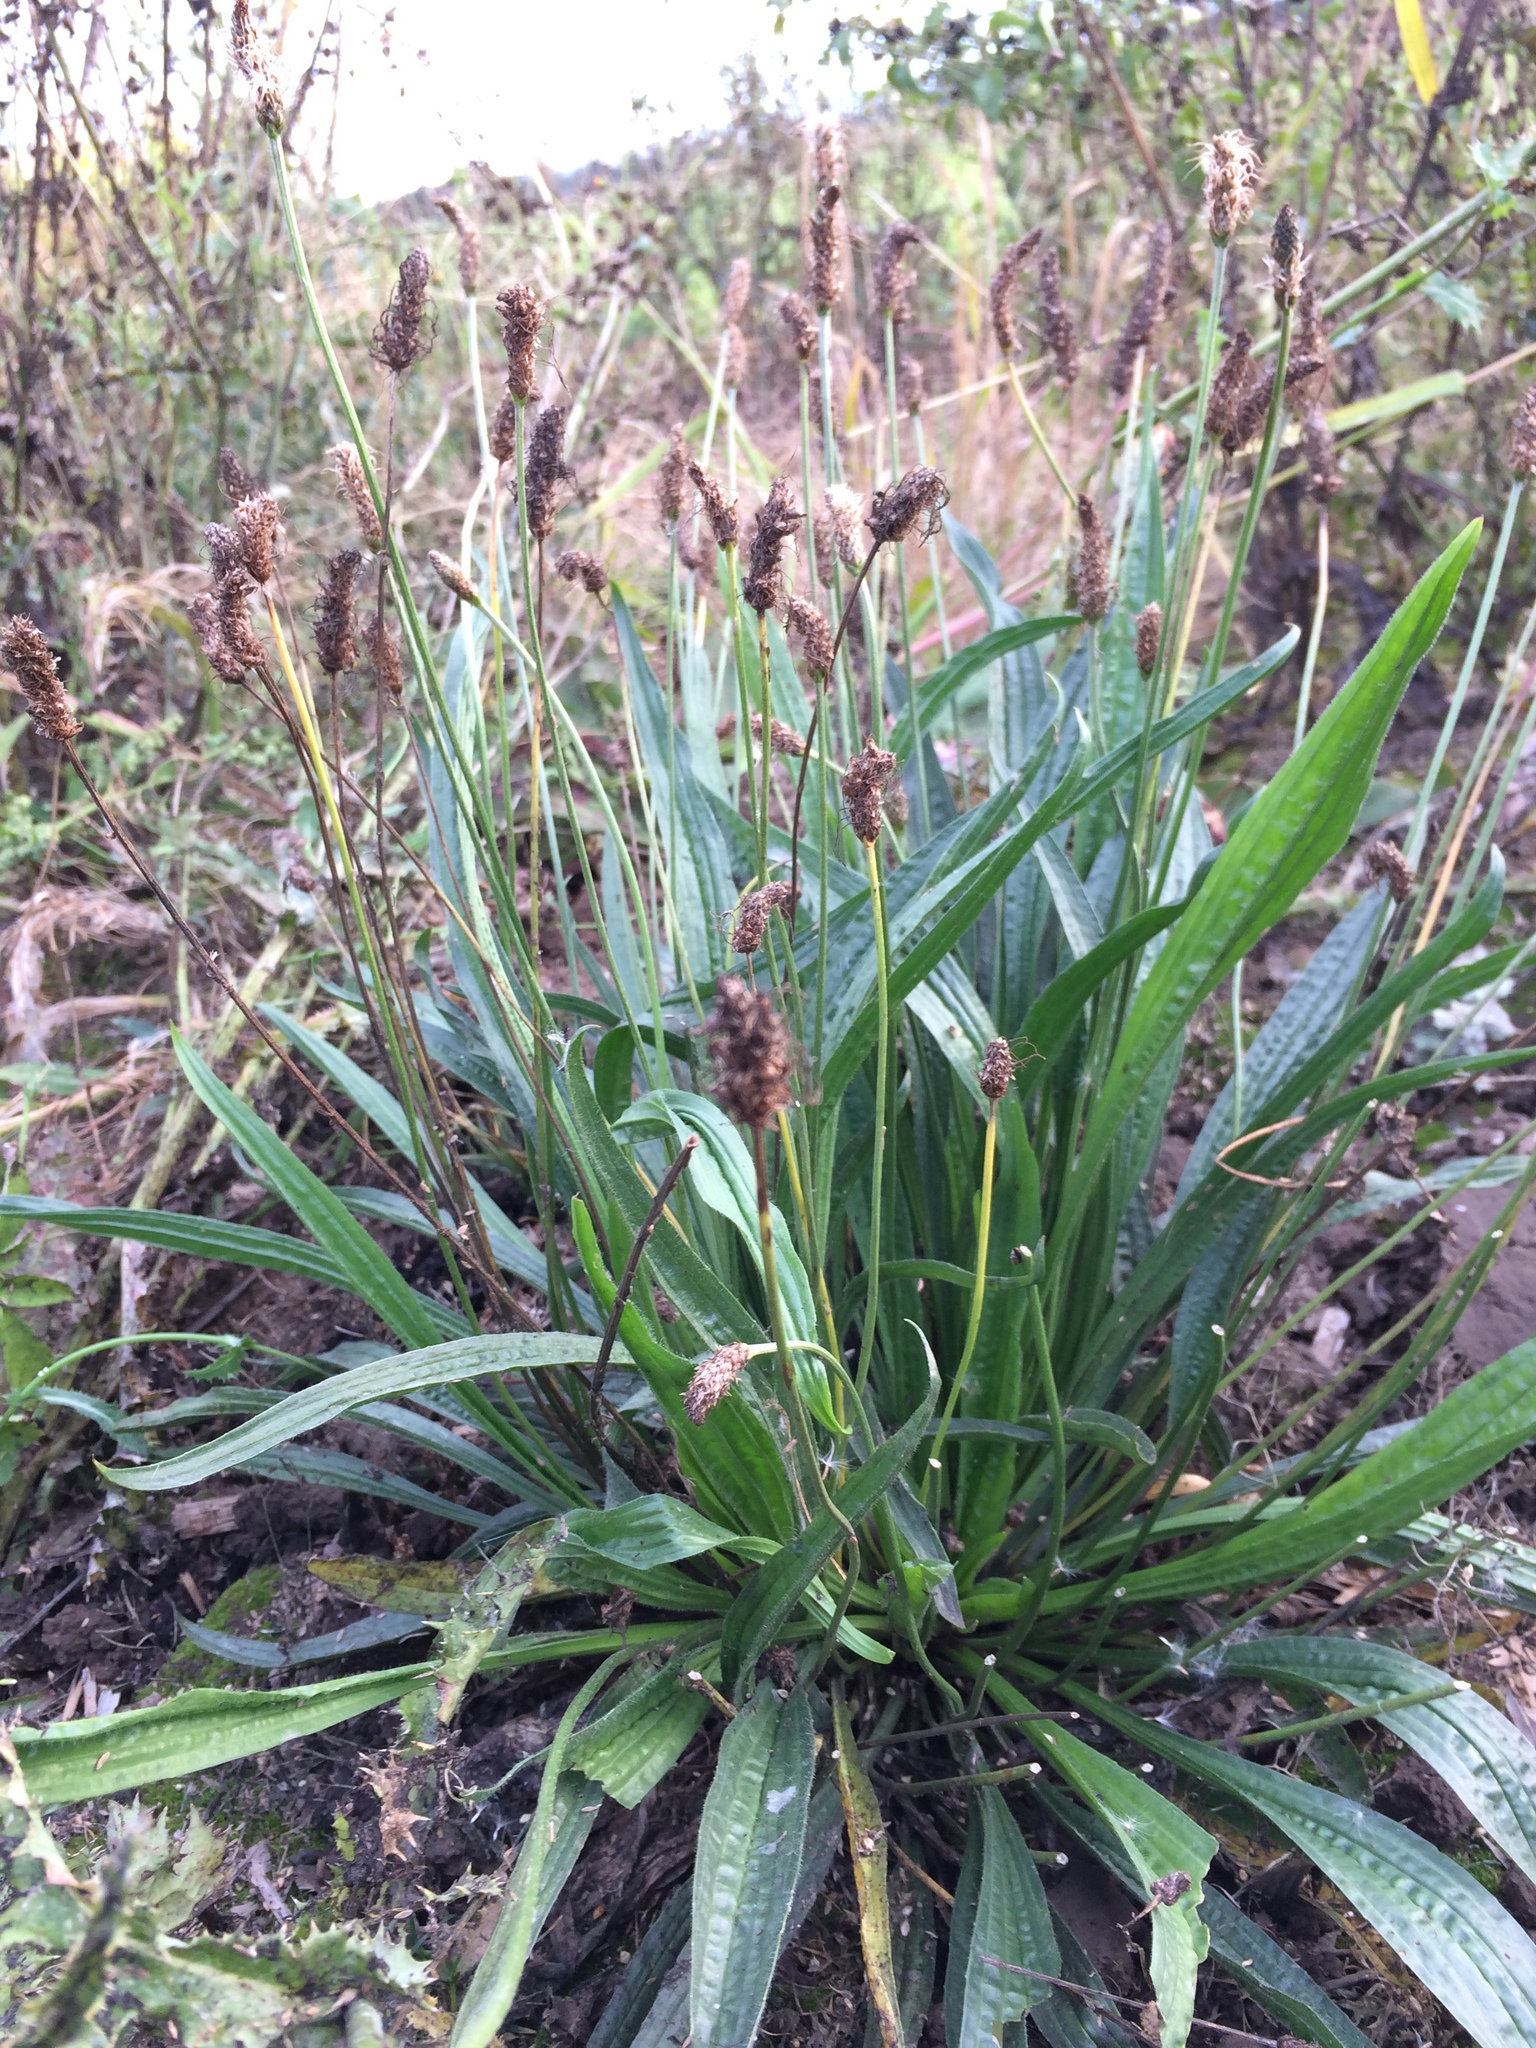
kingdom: Plantae
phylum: Tracheophyta
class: Magnoliopsida
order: Lamiales
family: Plantaginaceae
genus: Plantago
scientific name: Plantago lanceolata
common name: Ribwort plantain
